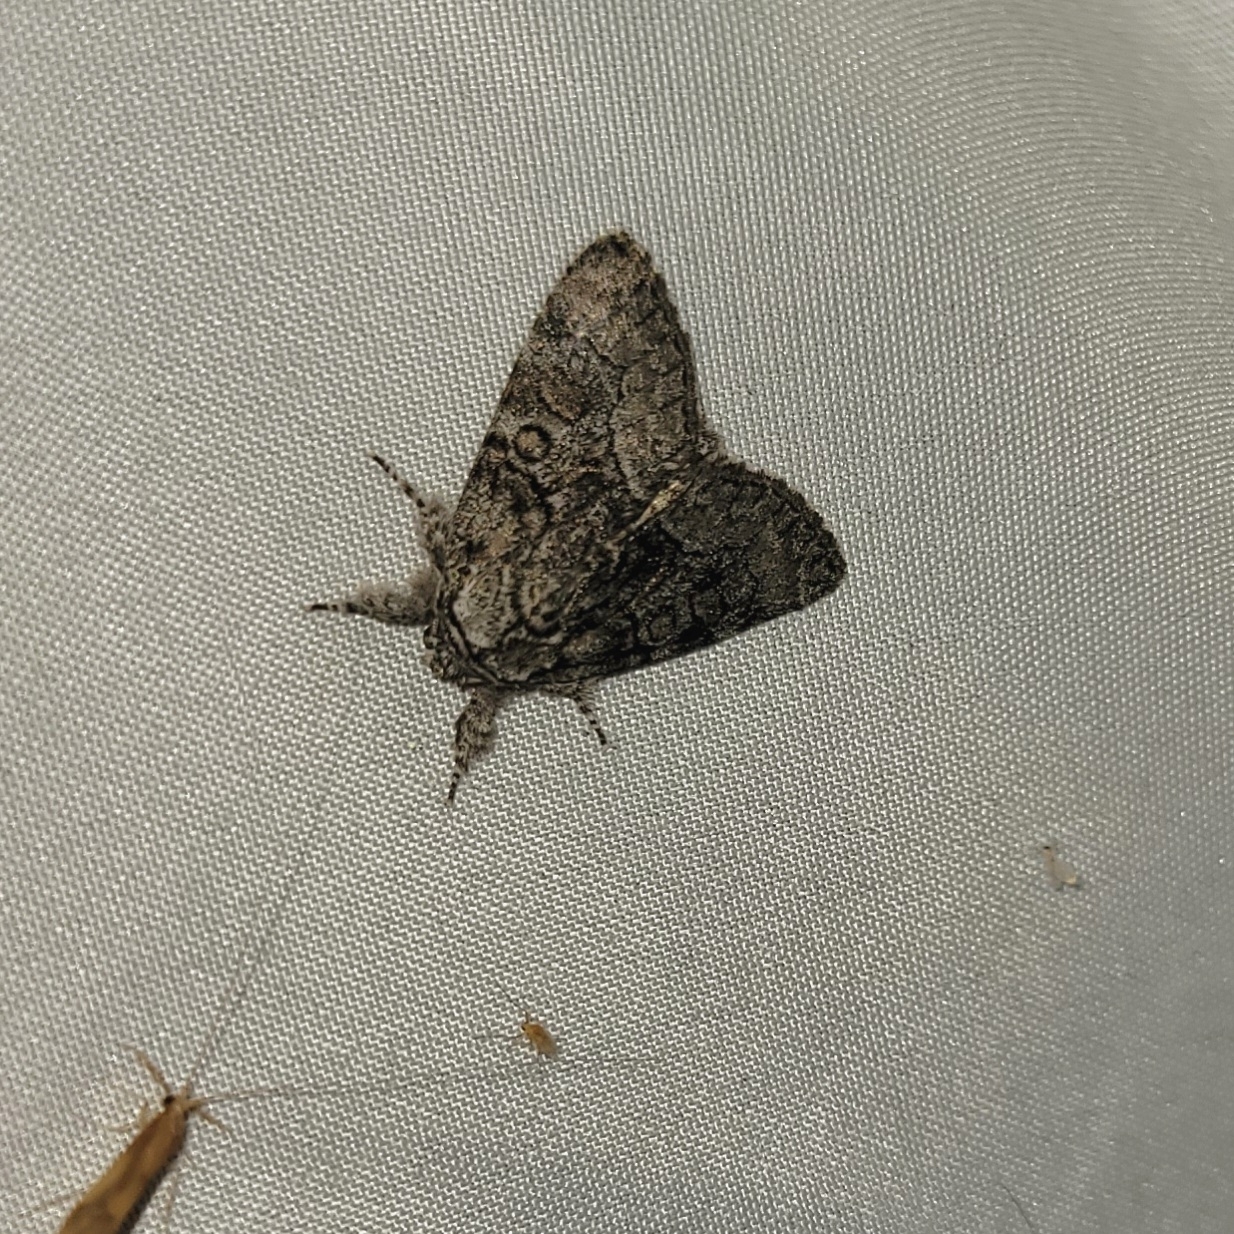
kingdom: Animalia
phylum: Arthropoda
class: Insecta
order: Lepidoptera
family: Noctuidae
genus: Raphia
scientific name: Raphia frater
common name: Brother
